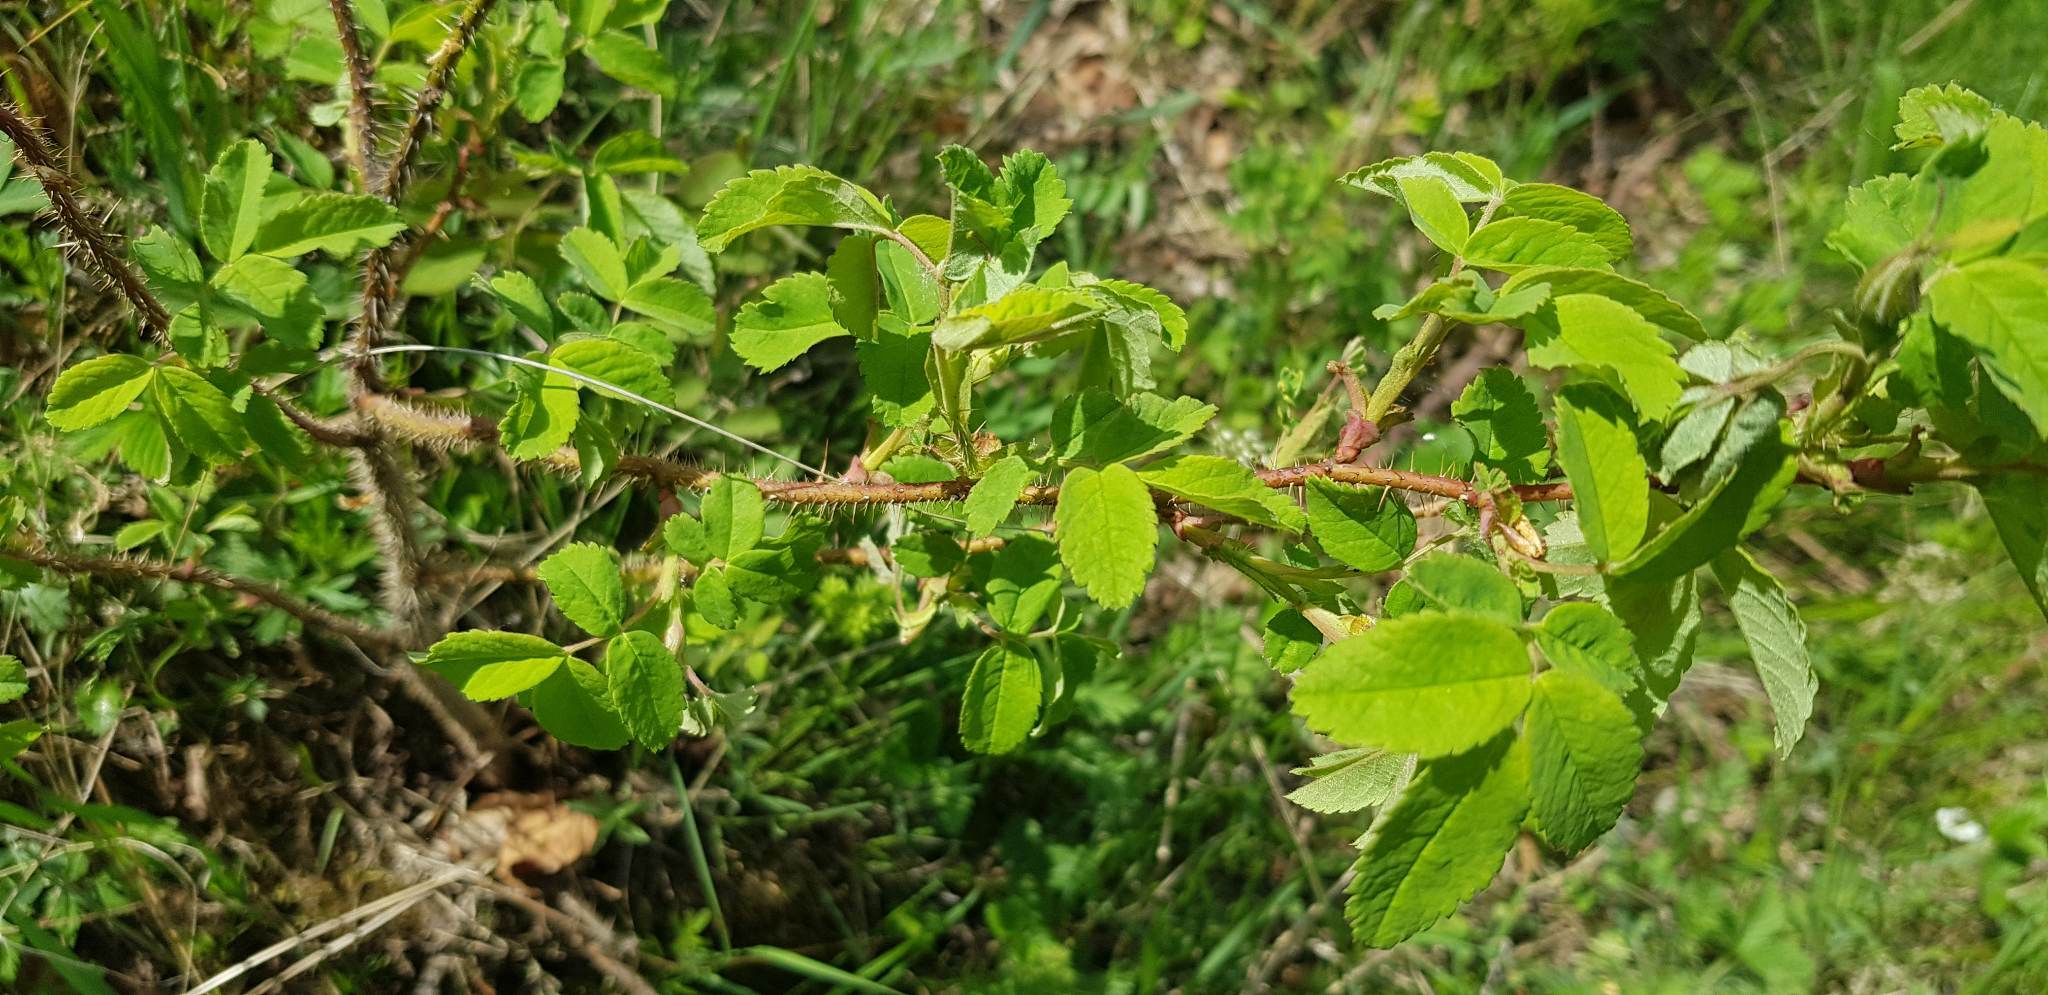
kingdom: Plantae
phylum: Tracheophyta
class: Magnoliopsida
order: Rosales
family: Rosaceae
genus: Rosa
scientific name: Rosa acicularis
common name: Prickly rose
